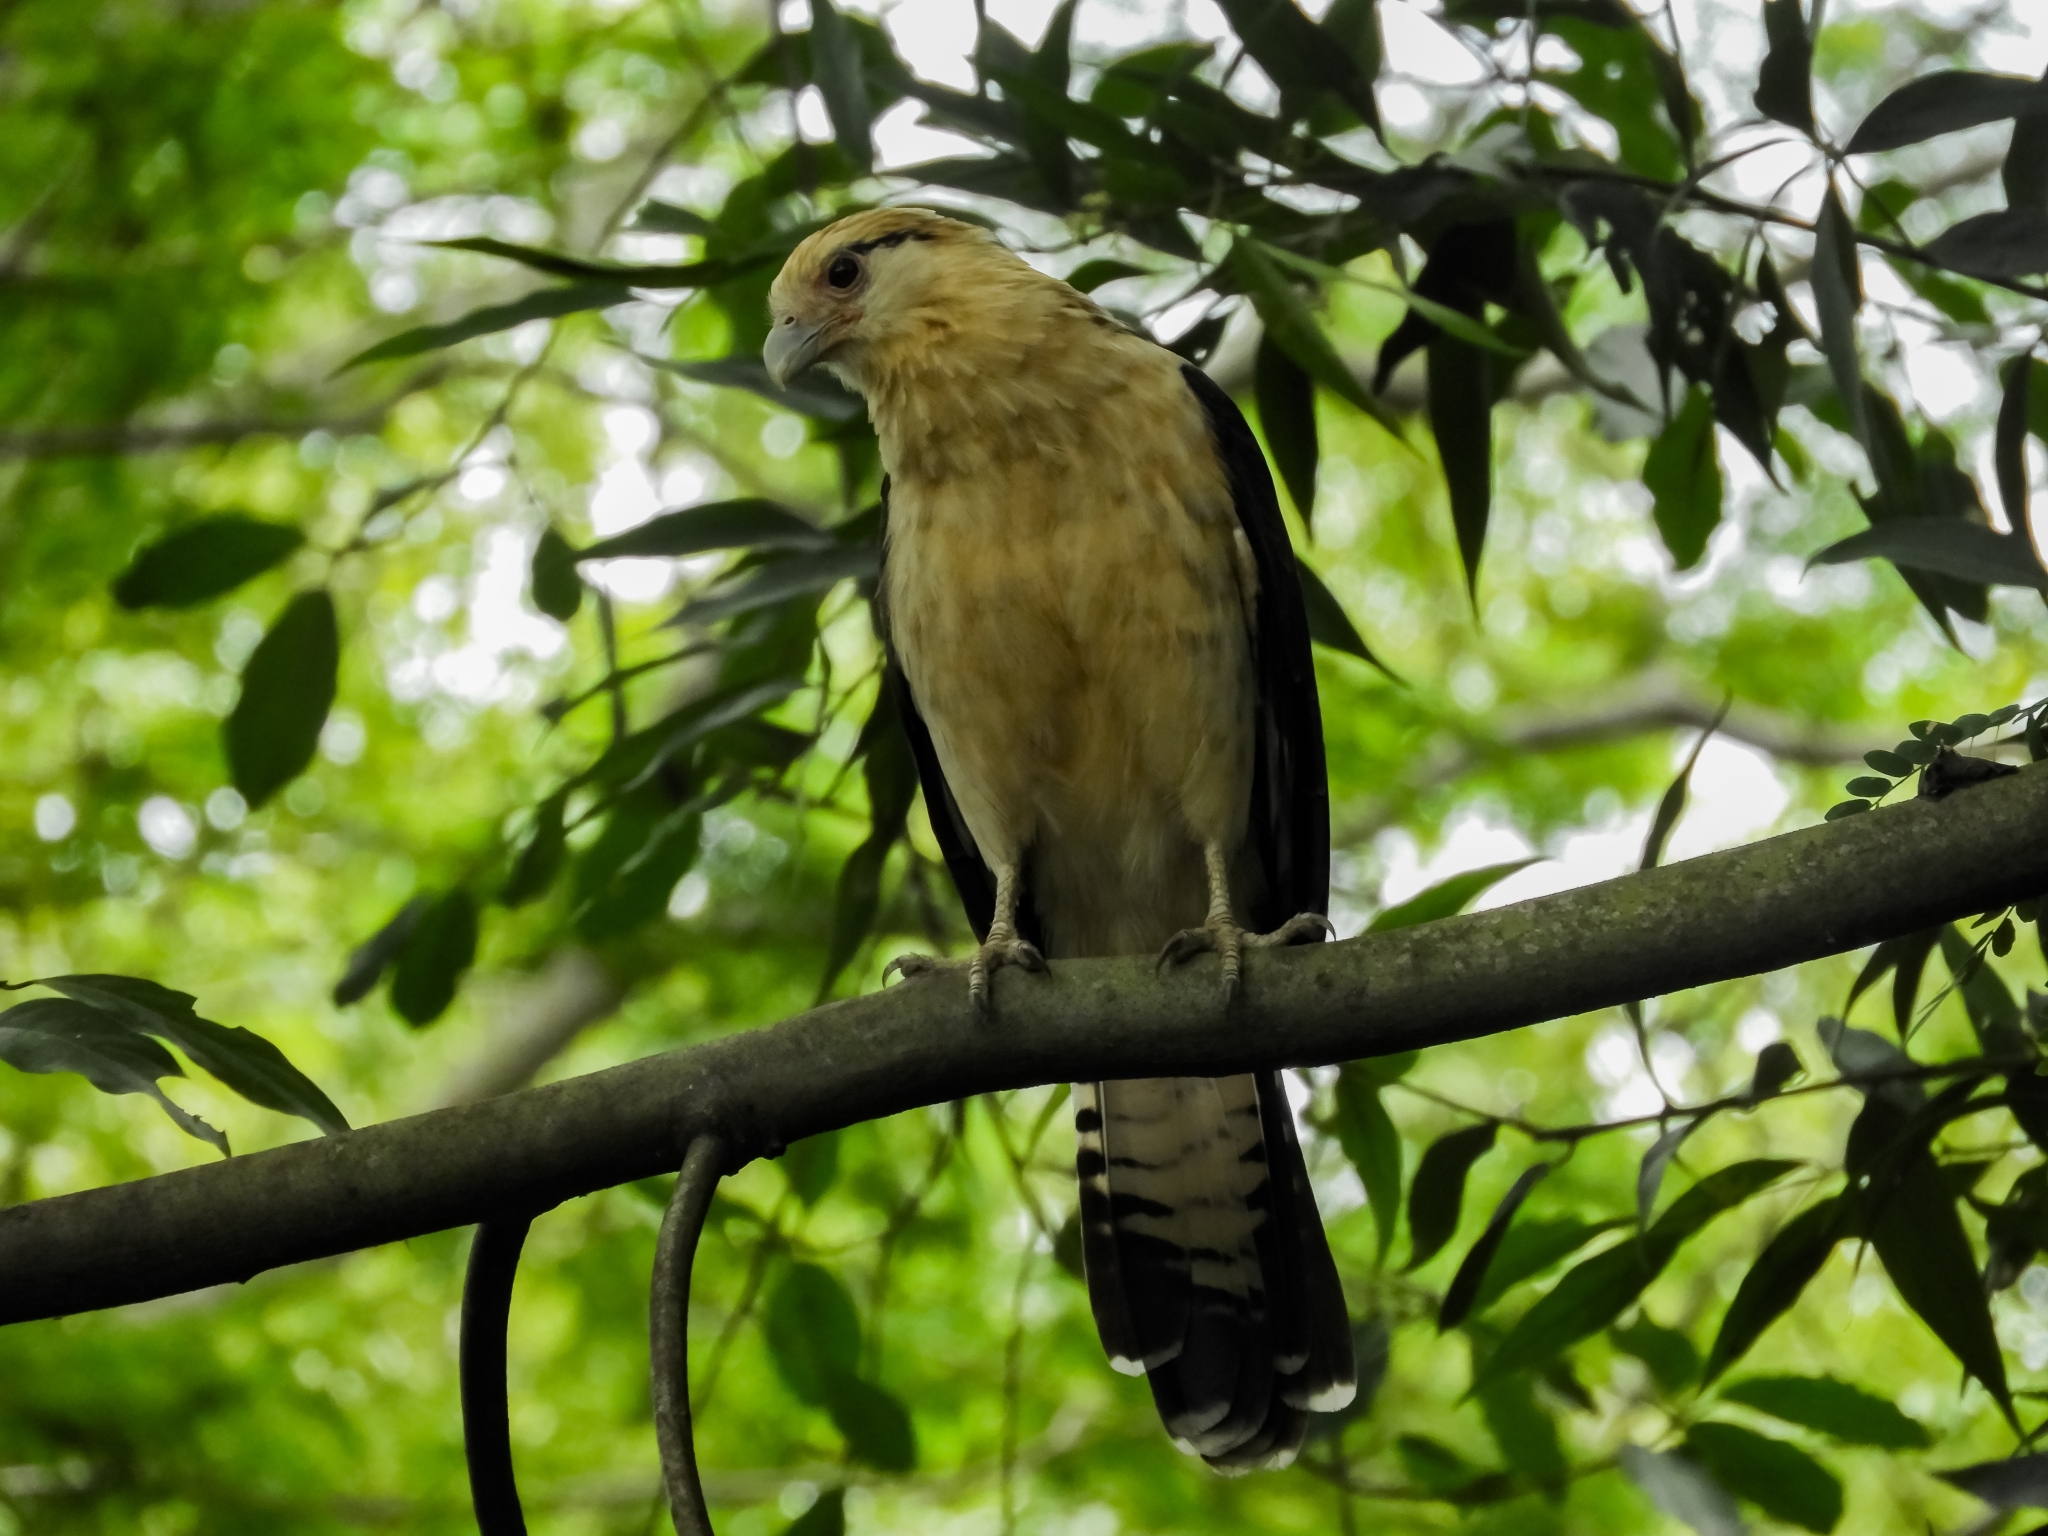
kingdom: Animalia
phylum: Chordata
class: Aves
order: Falconiformes
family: Falconidae
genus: Daptrius
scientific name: Daptrius
